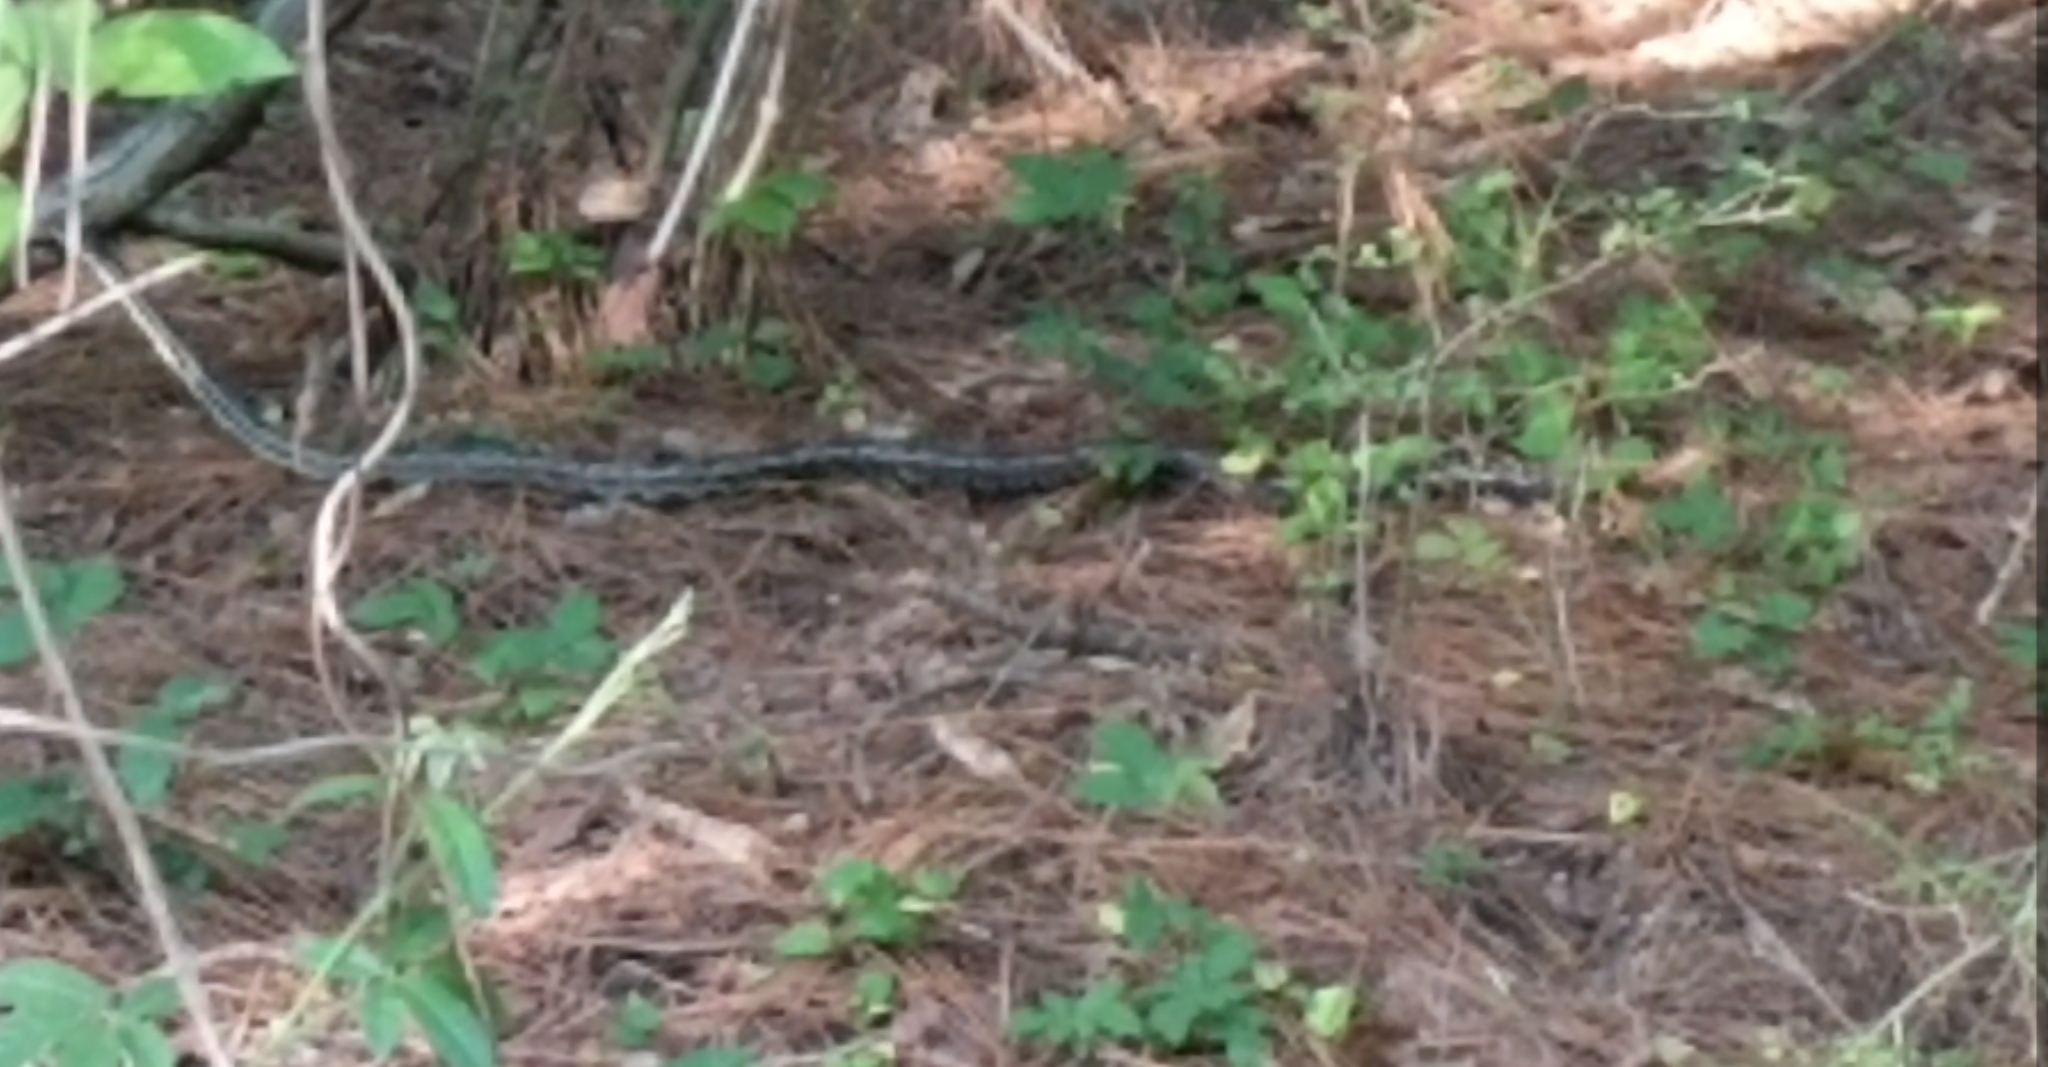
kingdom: Animalia
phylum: Chordata
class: Squamata
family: Colubridae
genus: Pantherophis
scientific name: Pantherophis spiloides
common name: Gray rat snake
